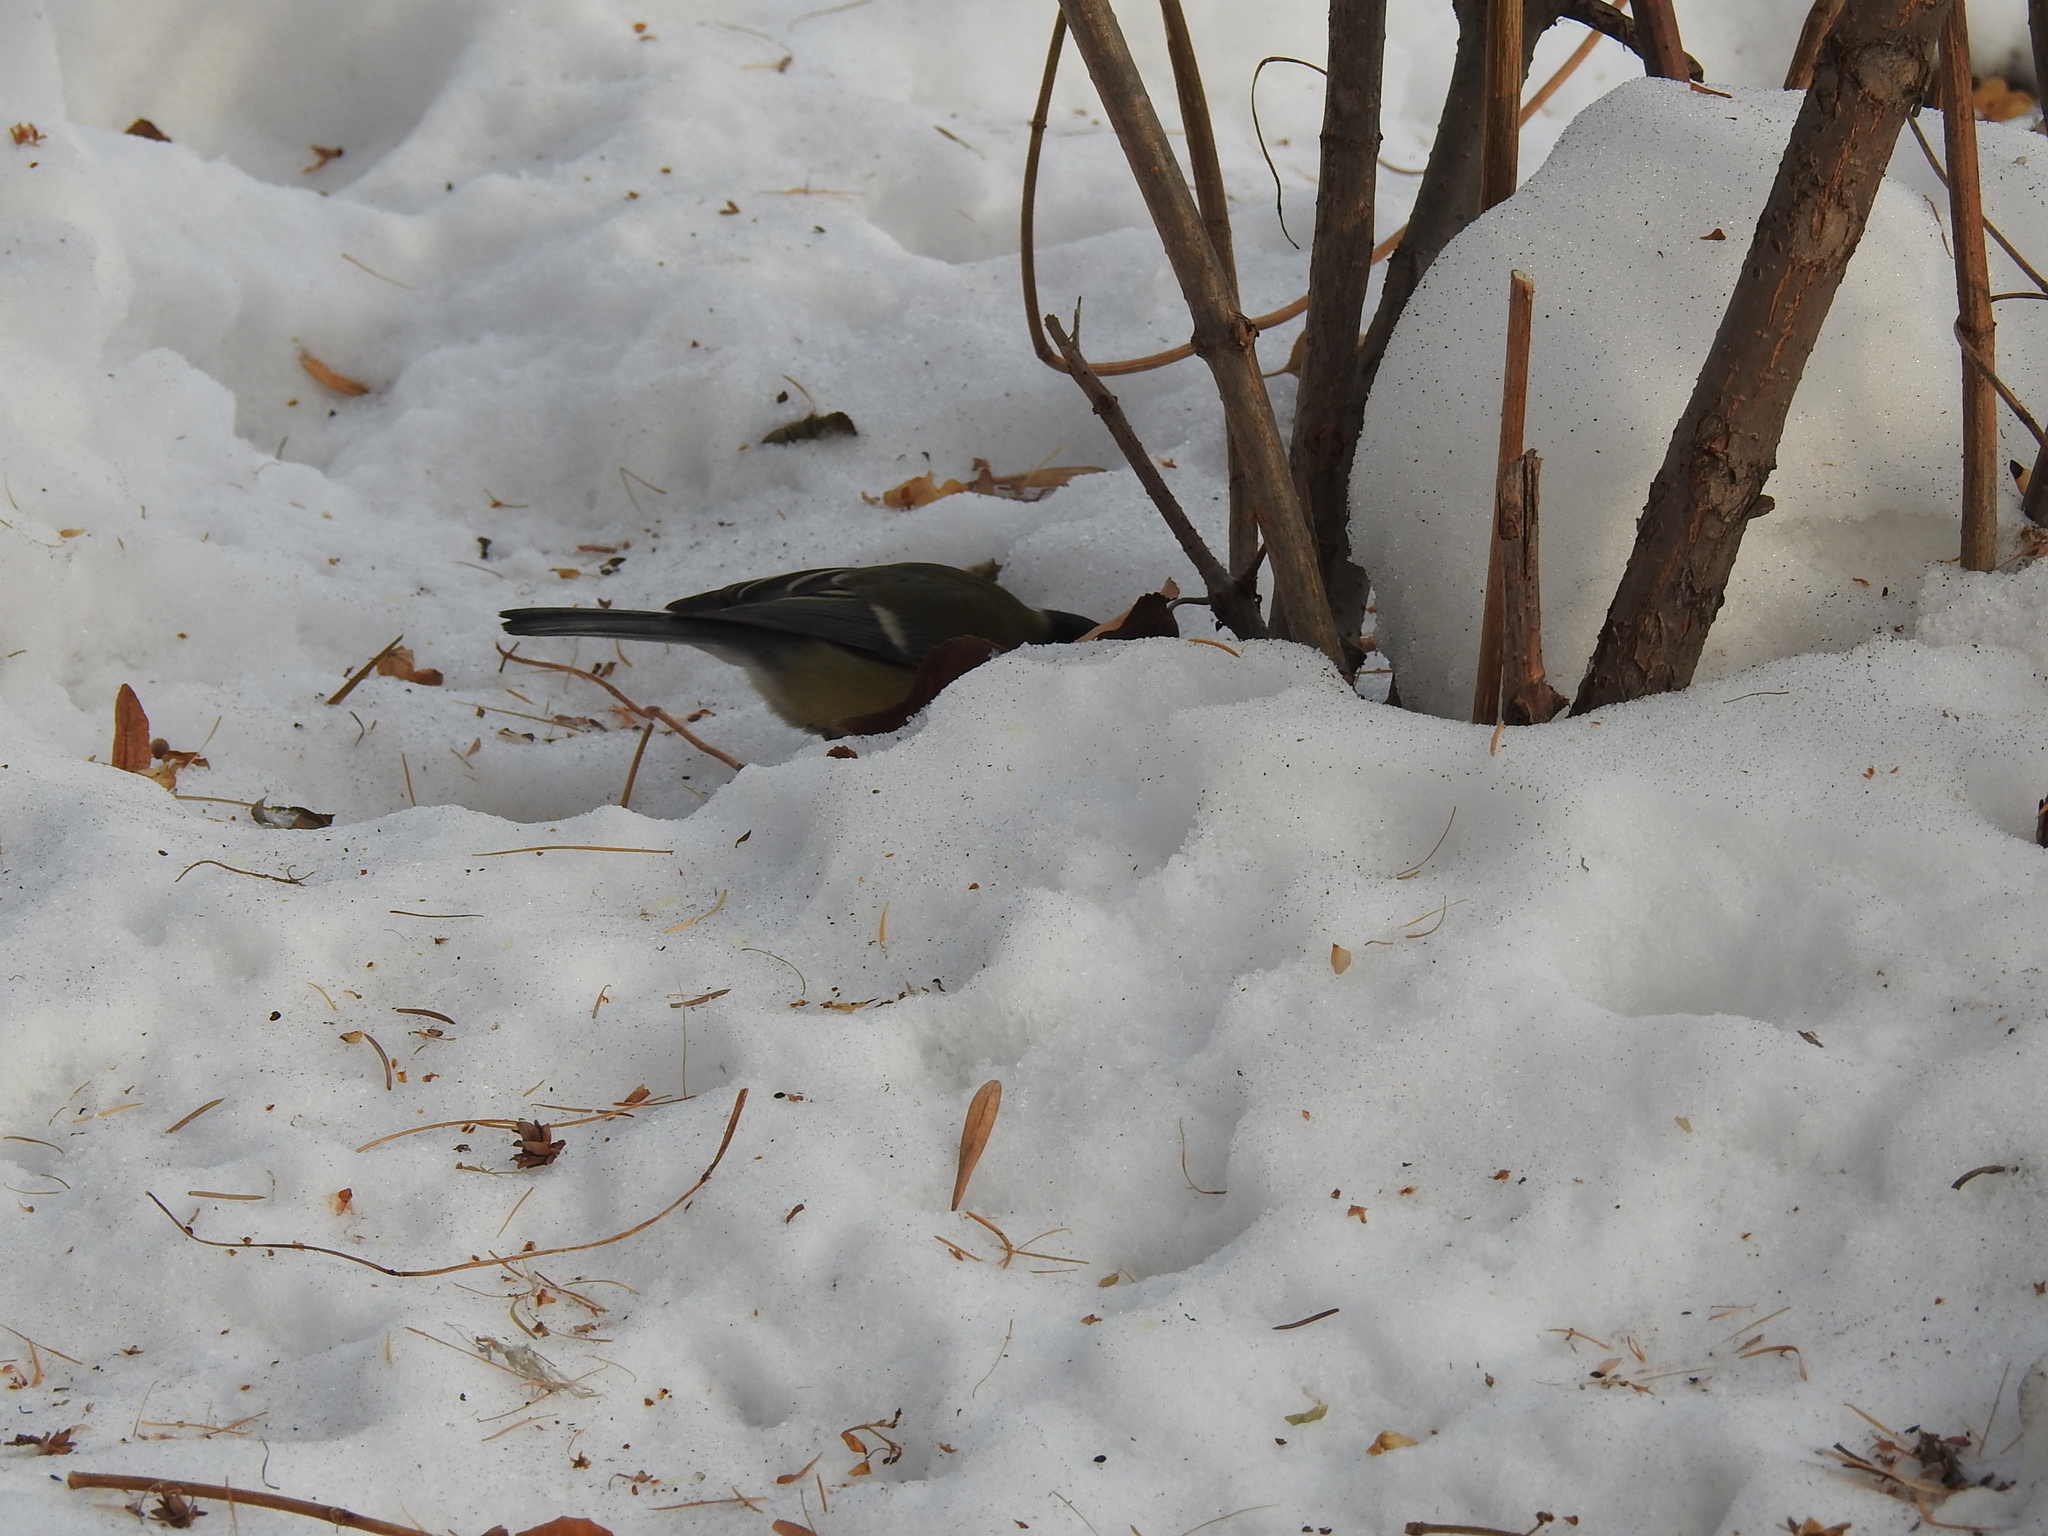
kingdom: Animalia
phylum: Chordata
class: Aves
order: Passeriformes
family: Paridae
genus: Parus
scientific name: Parus major
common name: Great tit
